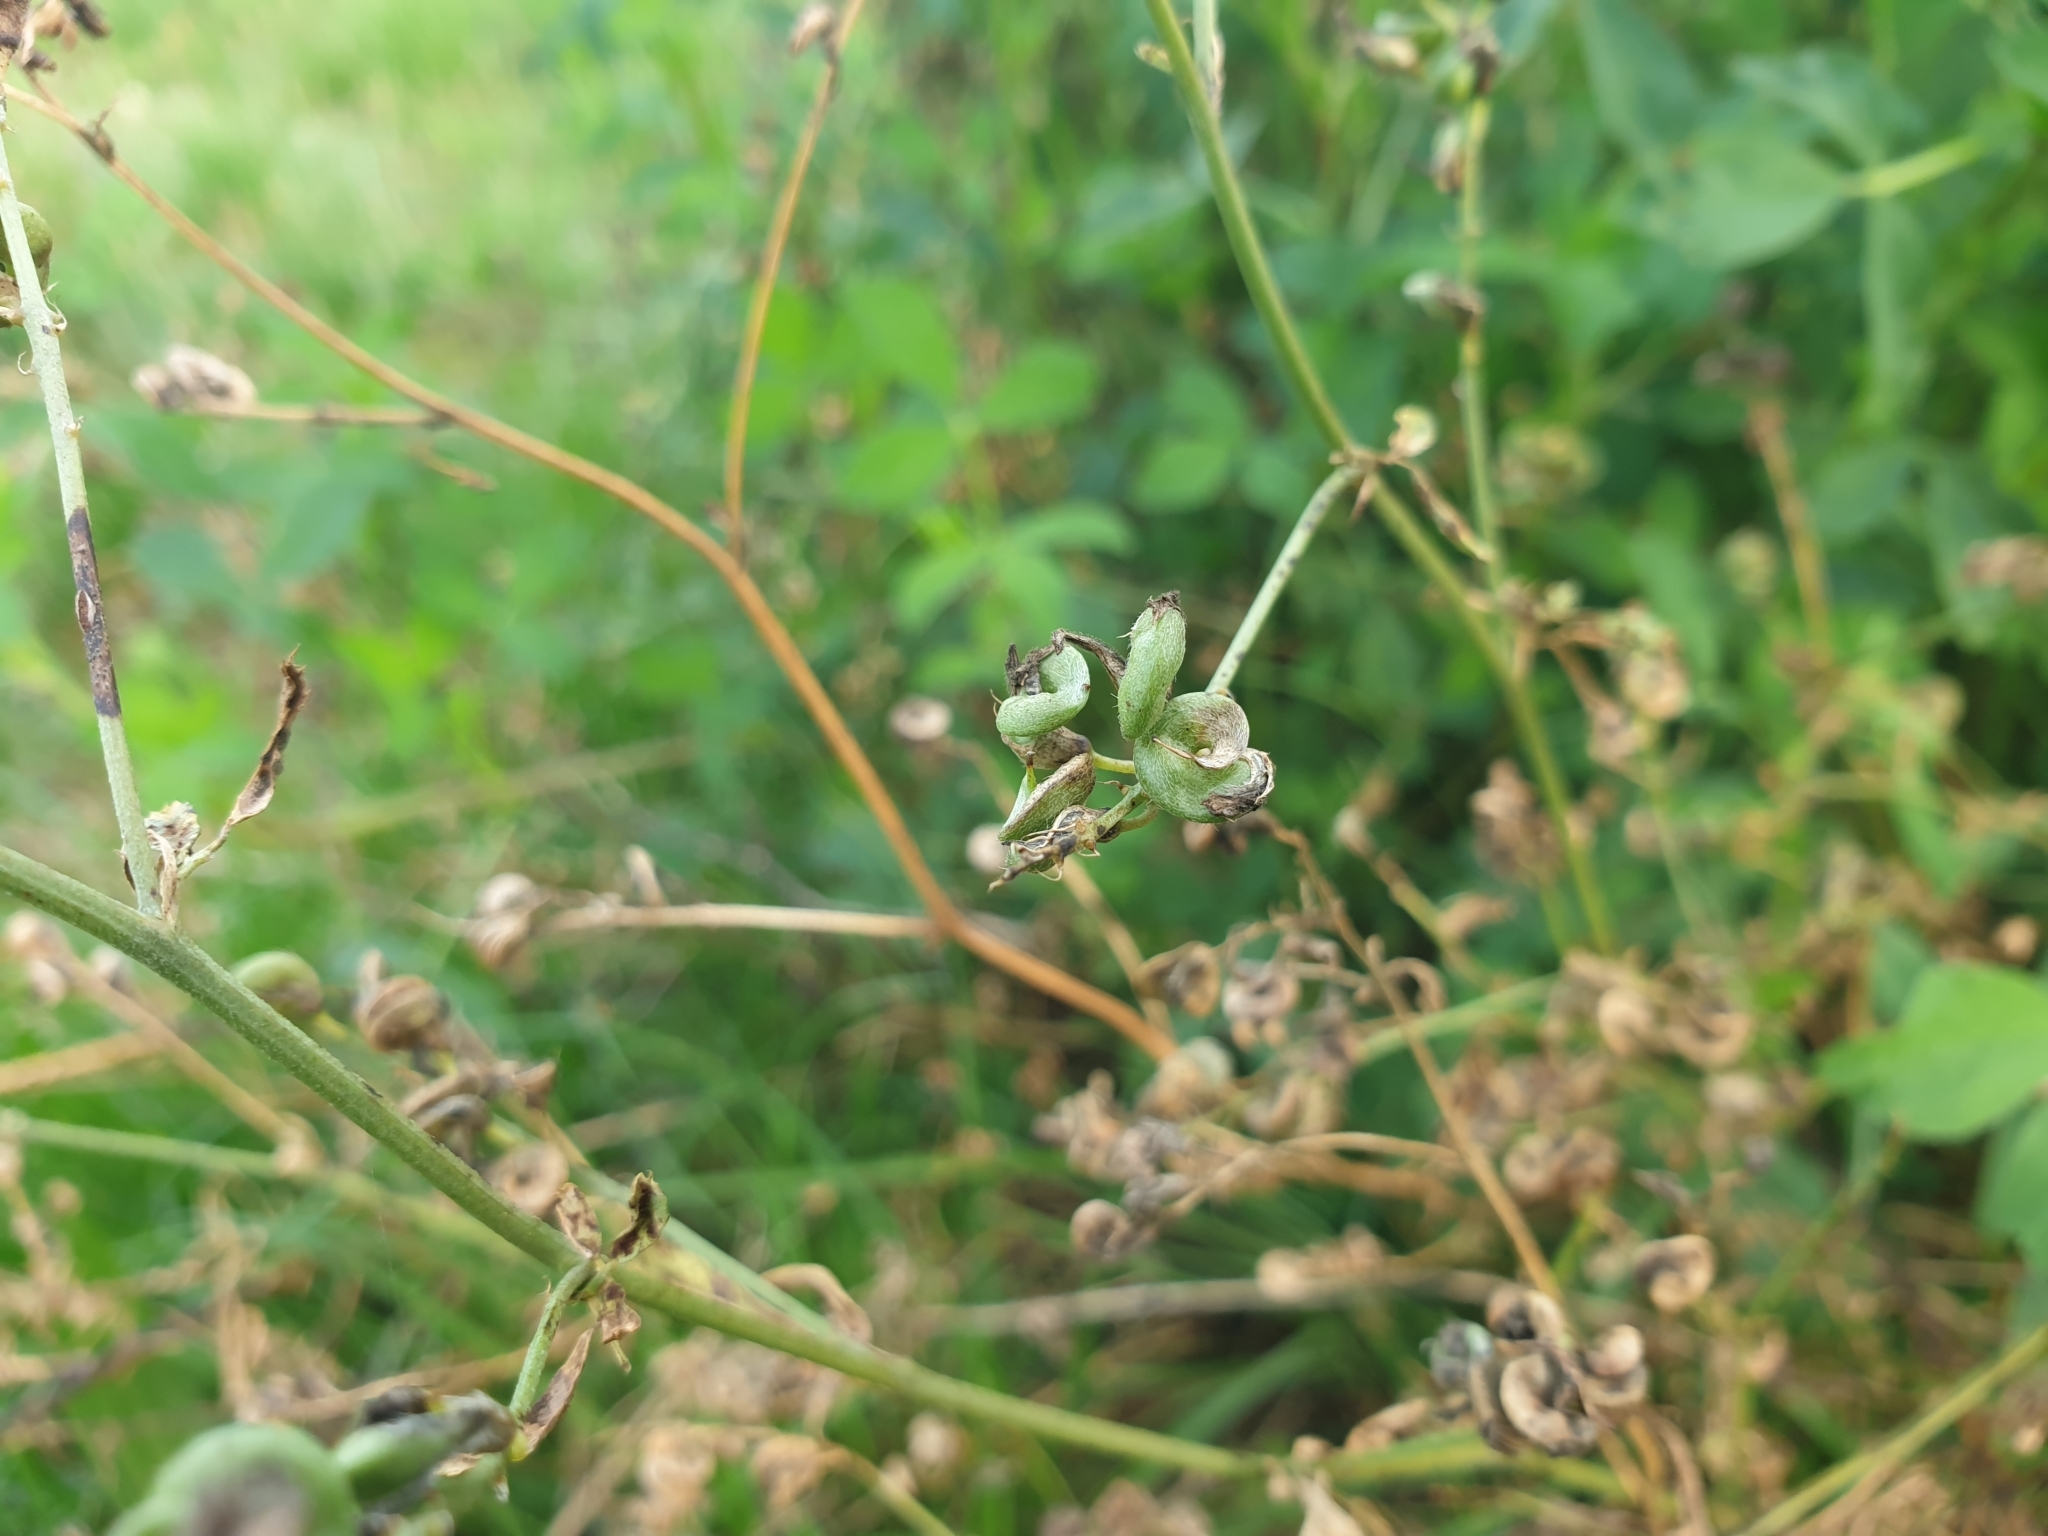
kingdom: Plantae
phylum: Tracheophyta
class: Magnoliopsida
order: Fabales
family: Fabaceae
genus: Medicago
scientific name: Medicago sativa
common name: Alfalfa
